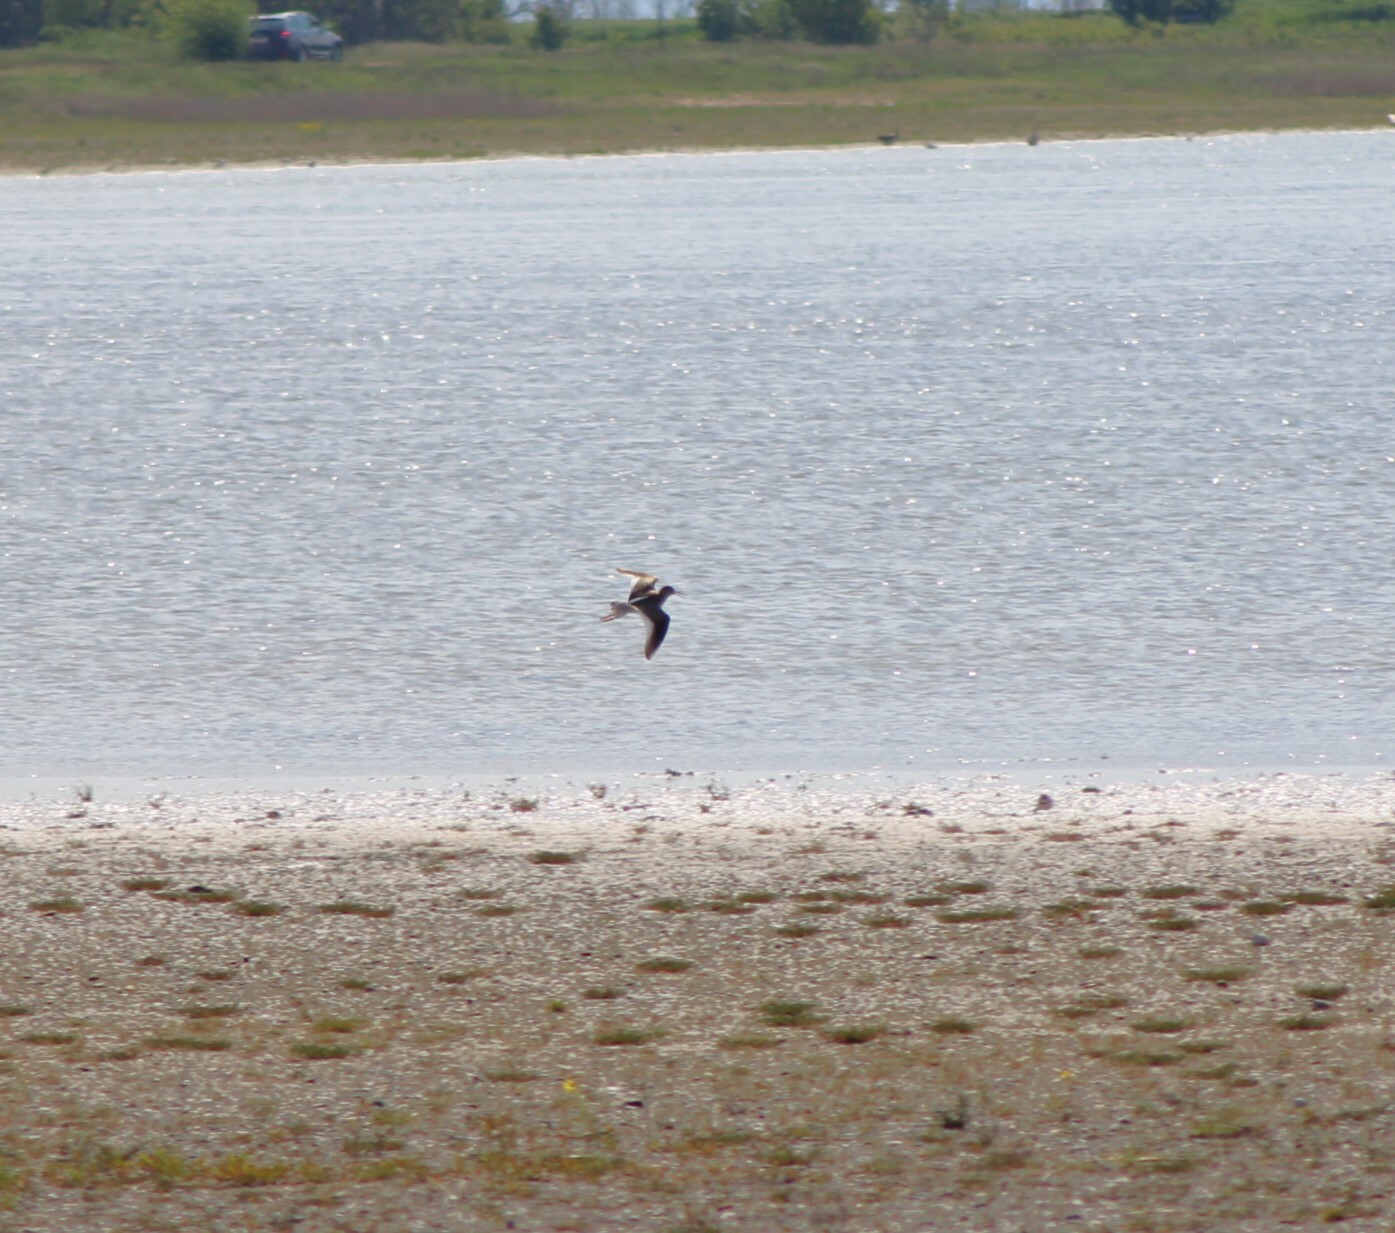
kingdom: Animalia
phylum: Chordata
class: Aves
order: Charadriiformes
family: Scolopacidae
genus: Tringa
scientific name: Tringa totanus
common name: Common redshank
